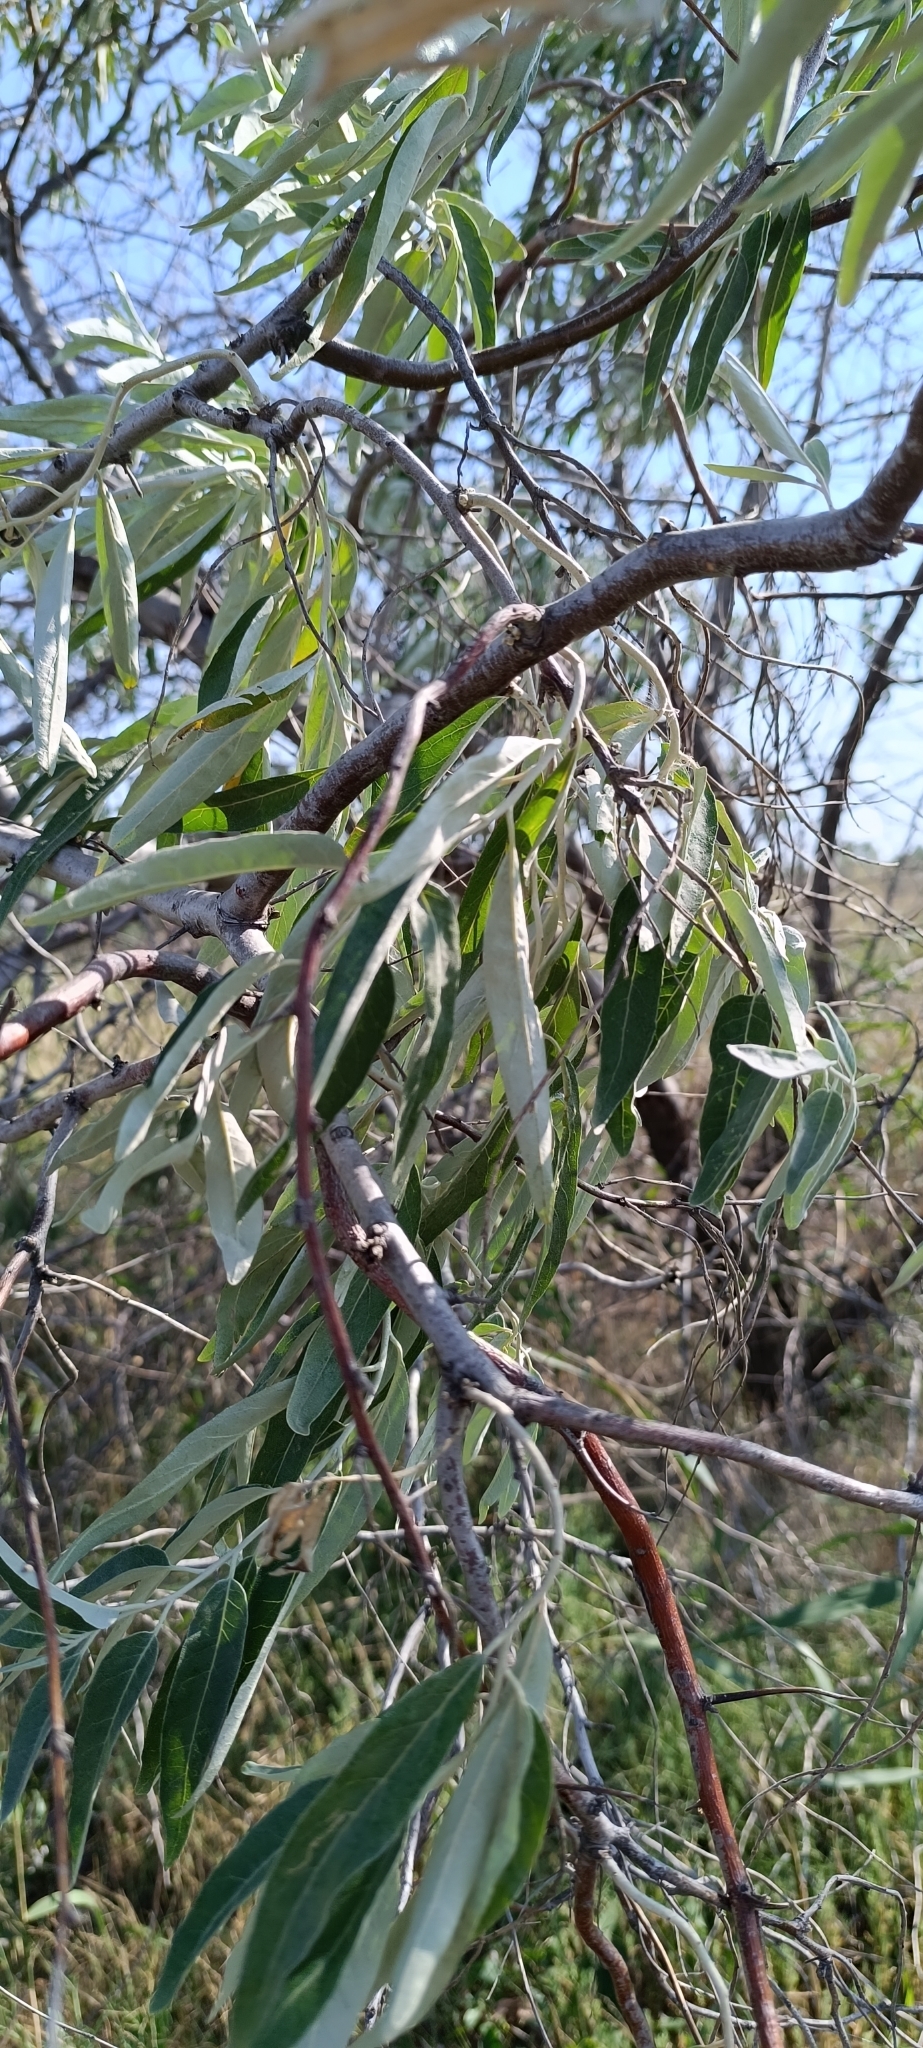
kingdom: Plantae
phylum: Tracheophyta
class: Magnoliopsida
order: Rosales
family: Elaeagnaceae
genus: Elaeagnus
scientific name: Elaeagnus angustifolia
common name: Russian olive
